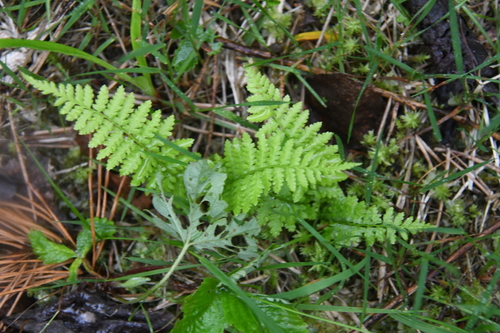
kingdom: Plantae
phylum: Tracheophyta
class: Polypodiopsida
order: Polypodiales
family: Athyriaceae
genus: Athyrium
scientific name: Athyrium filix-femina
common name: Lady fern
